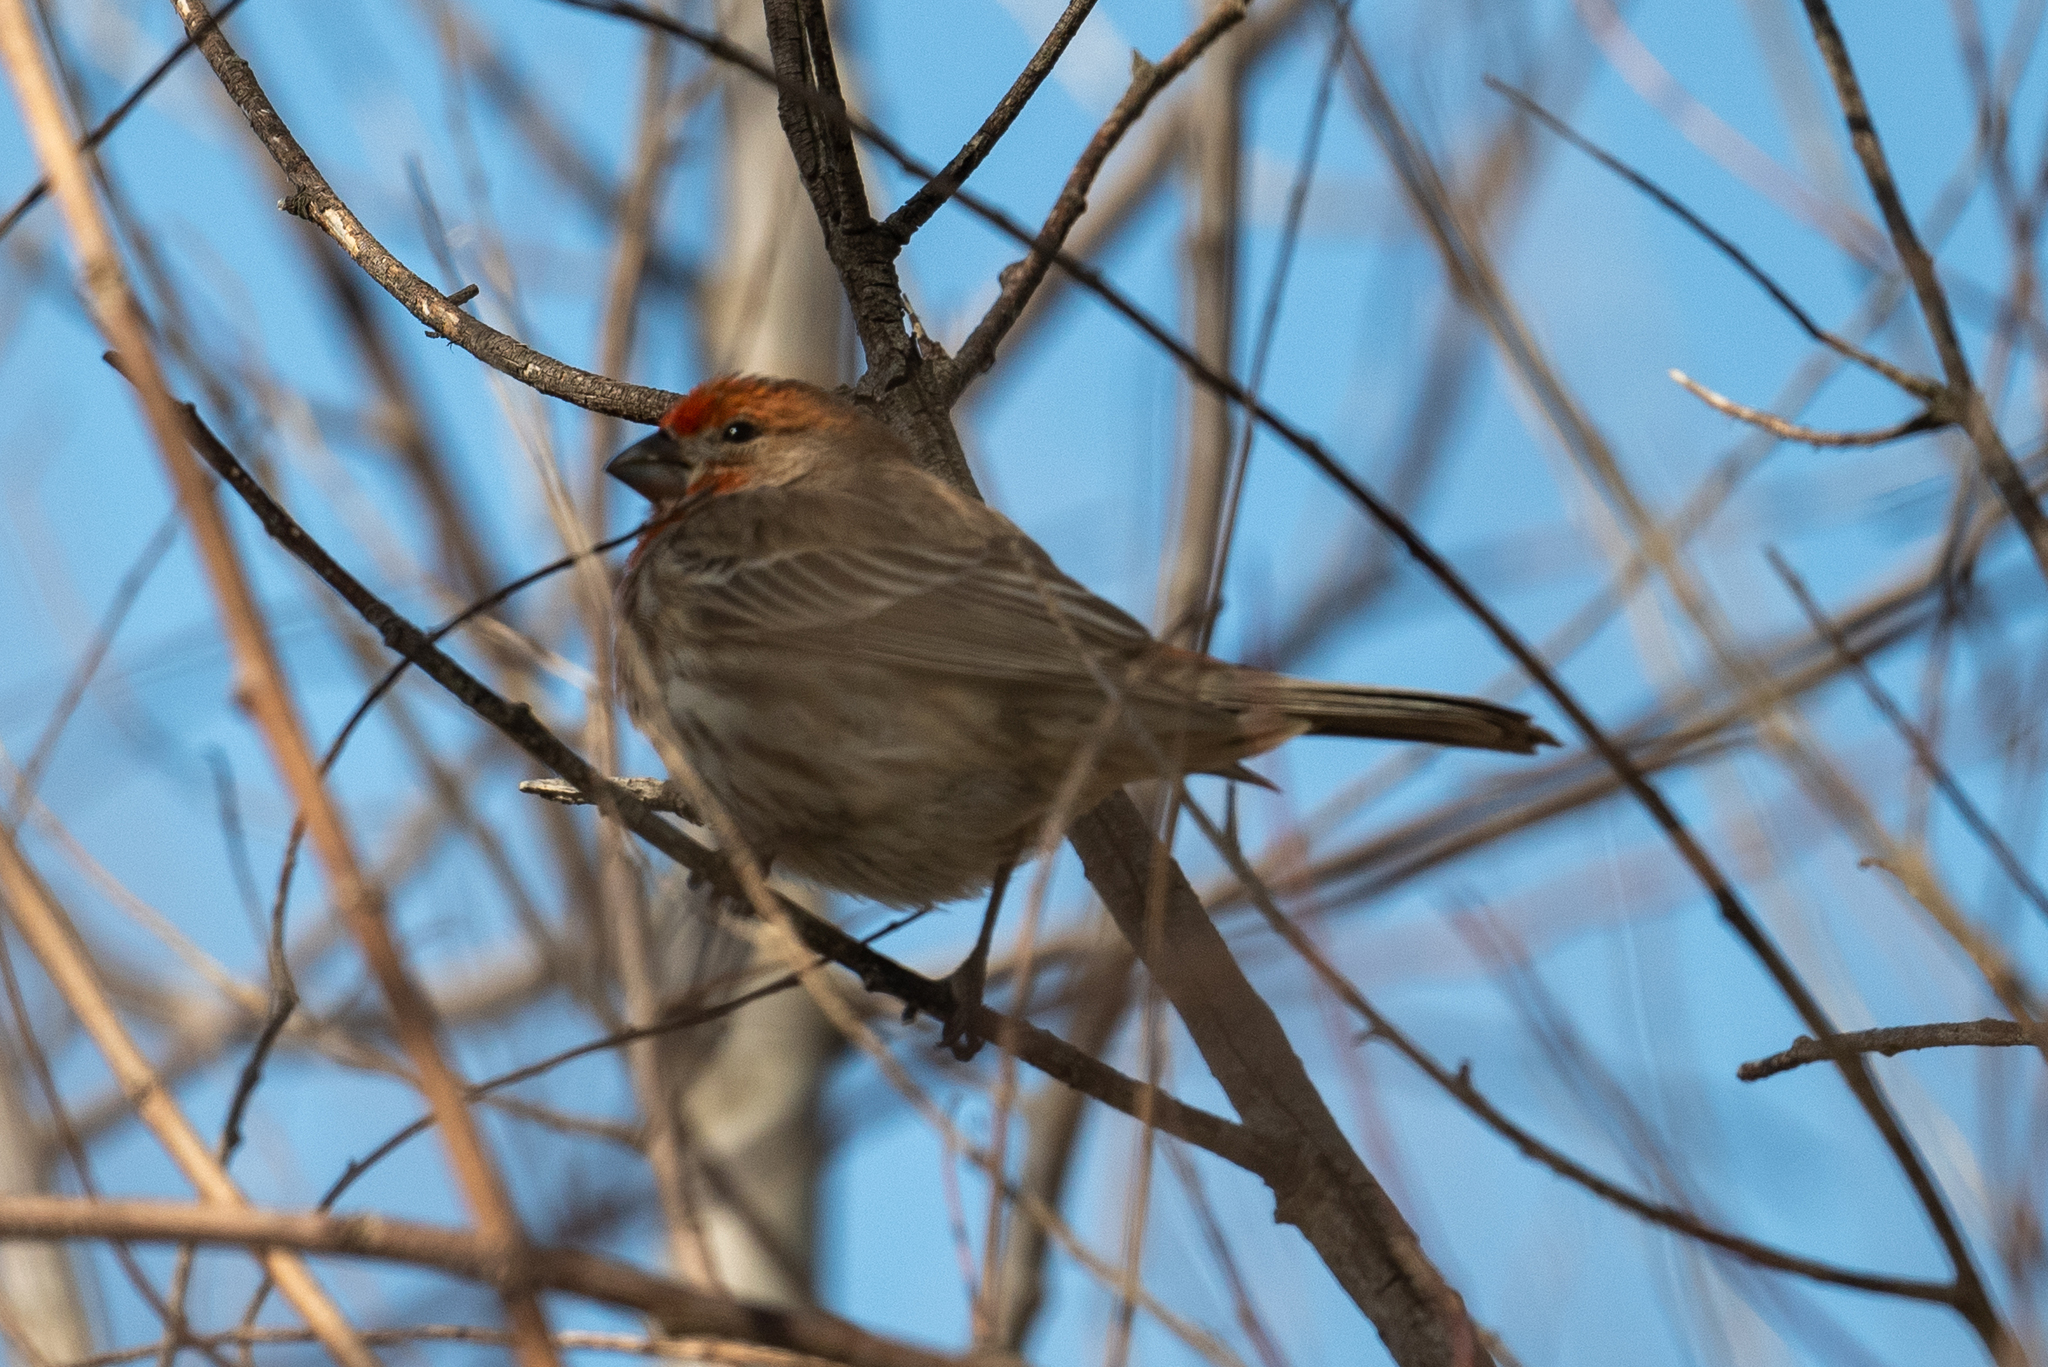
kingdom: Animalia
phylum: Chordata
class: Aves
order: Passeriformes
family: Fringillidae
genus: Haemorhous
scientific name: Haemorhous mexicanus
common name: House finch
